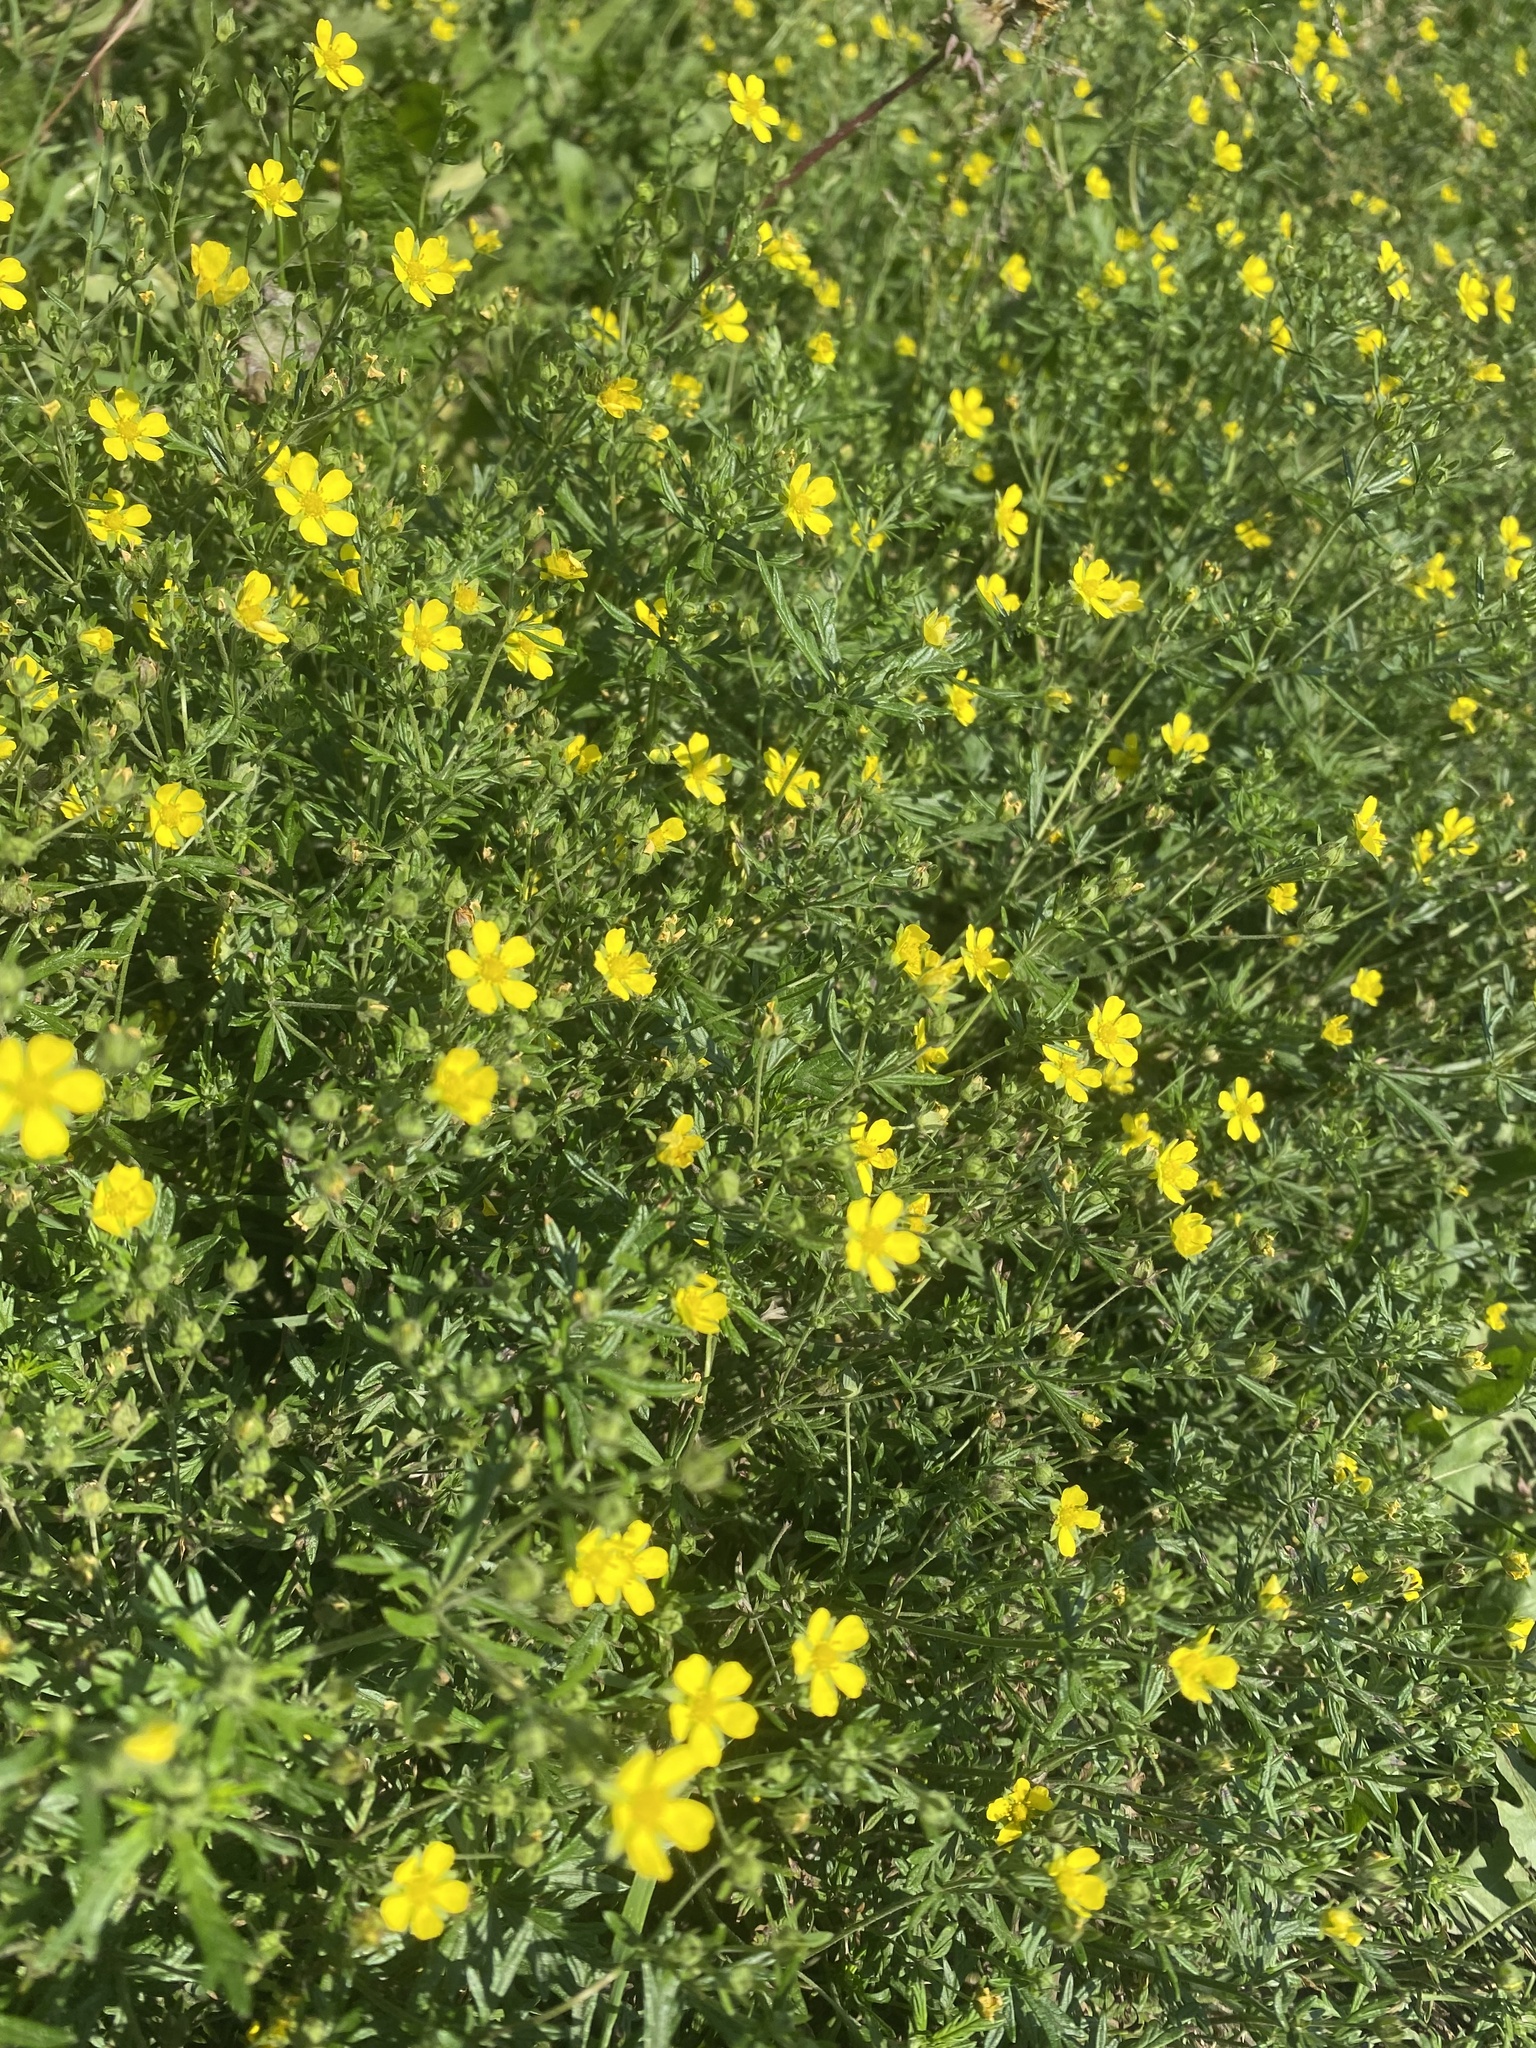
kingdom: Plantae
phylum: Tracheophyta
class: Magnoliopsida
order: Rosales
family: Rosaceae
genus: Potentilla
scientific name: Potentilla argentea
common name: Hoary cinquefoil
